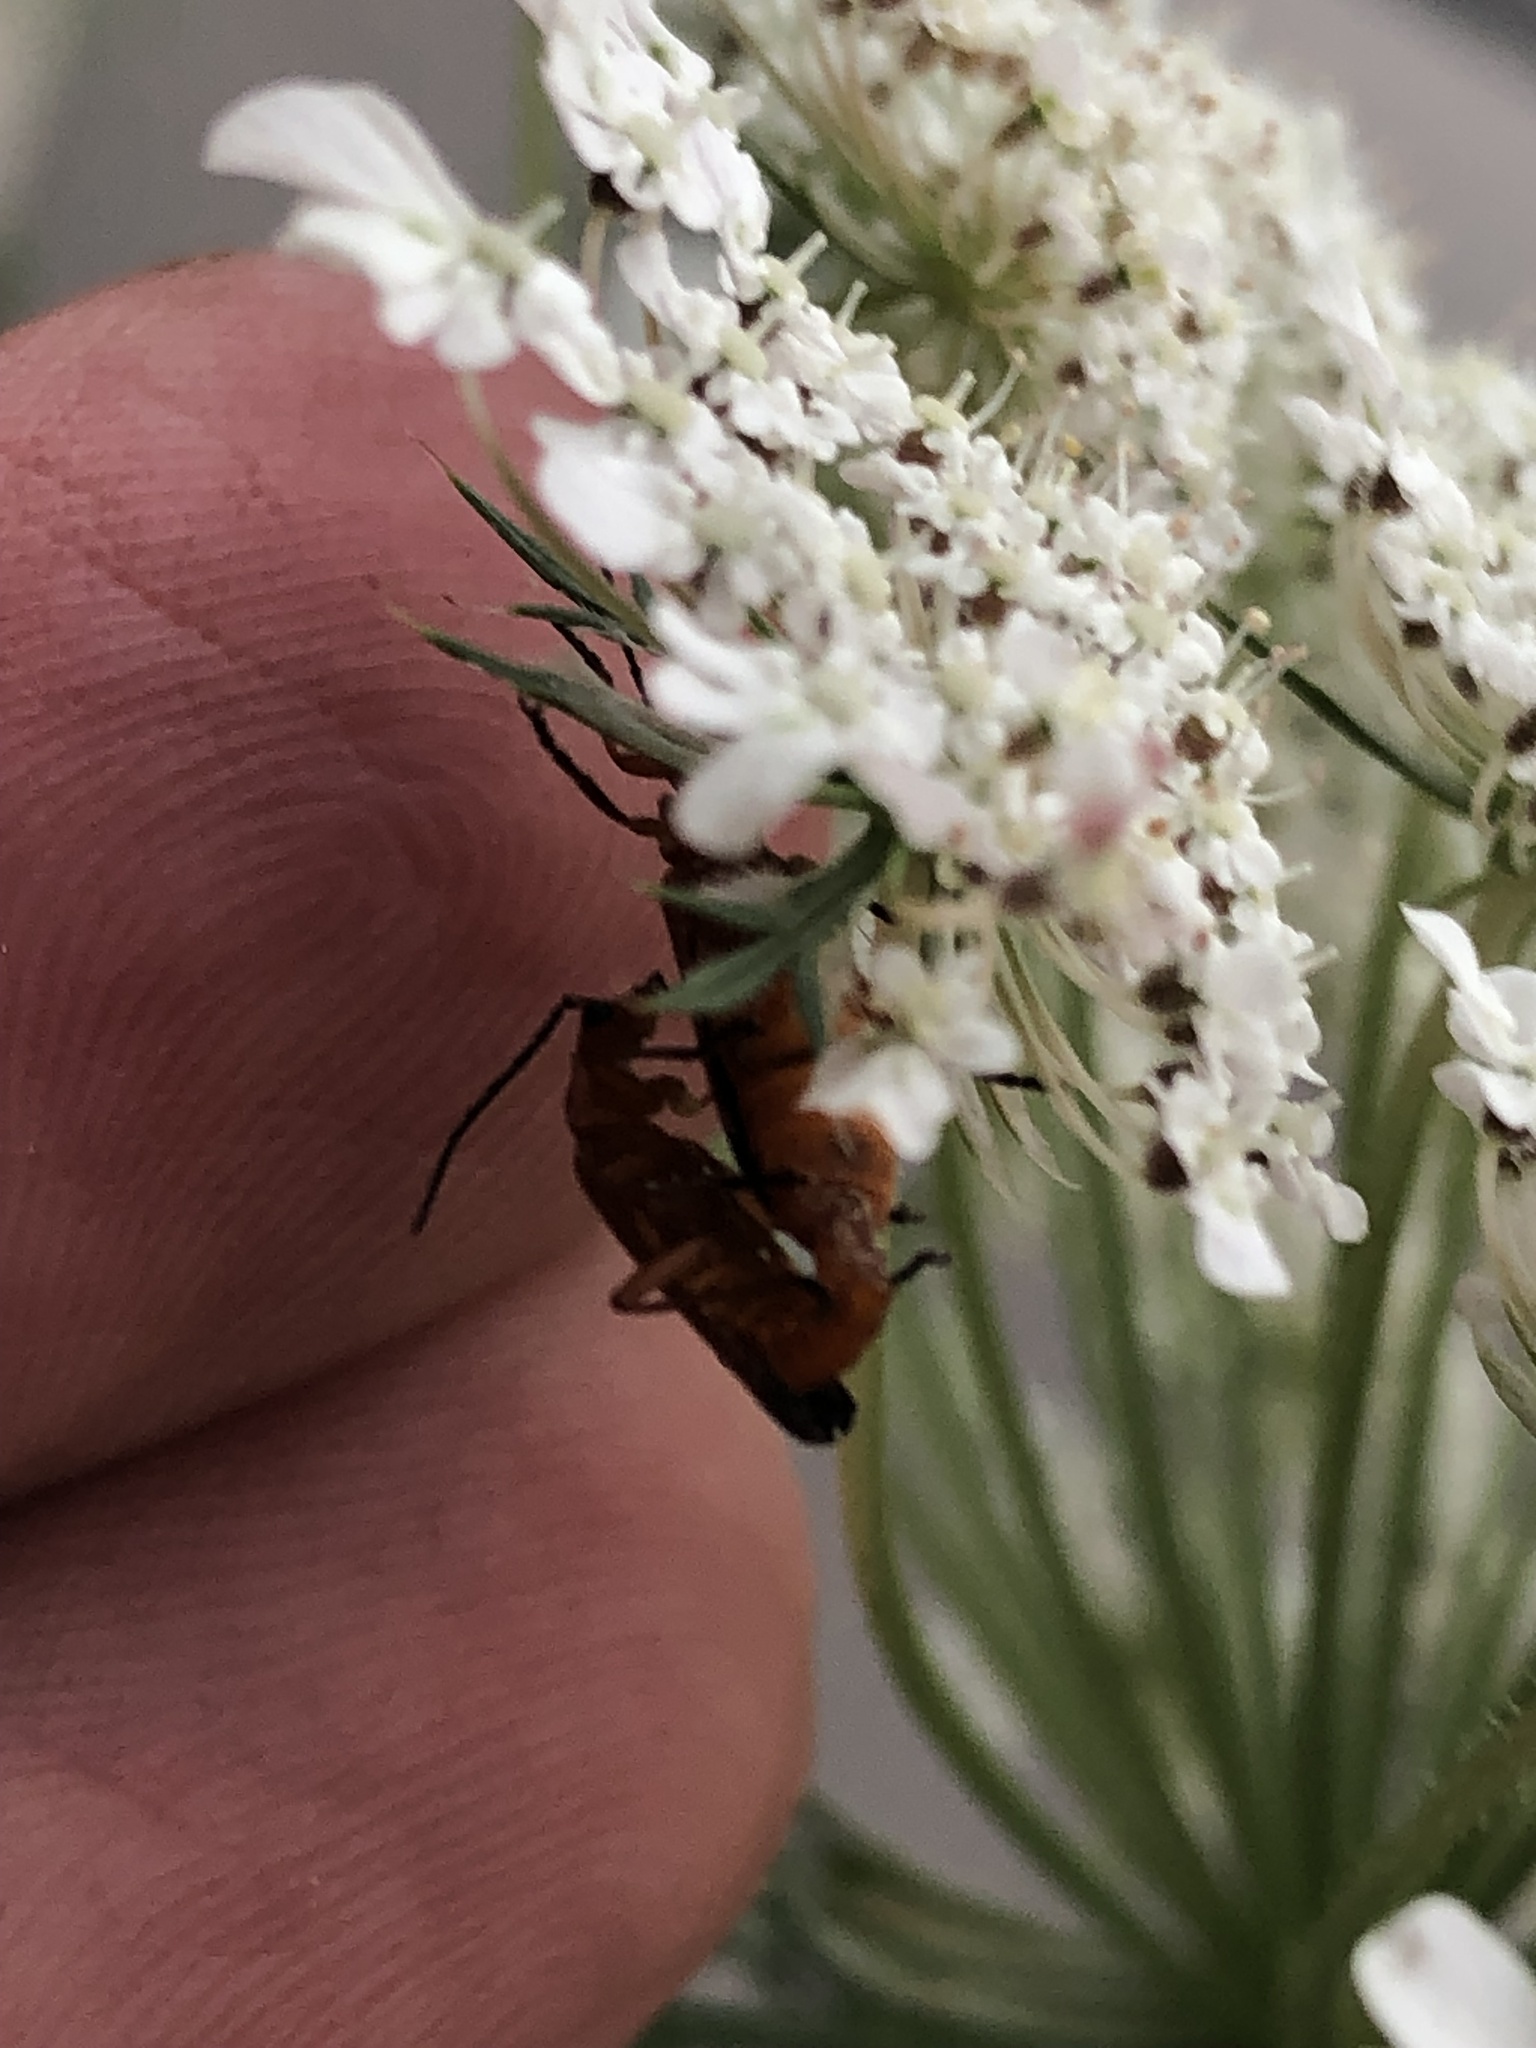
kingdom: Animalia
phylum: Arthropoda
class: Insecta
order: Coleoptera
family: Cantharidae
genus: Rhagonycha
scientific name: Rhagonycha fulva
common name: Common red soldier beetle
